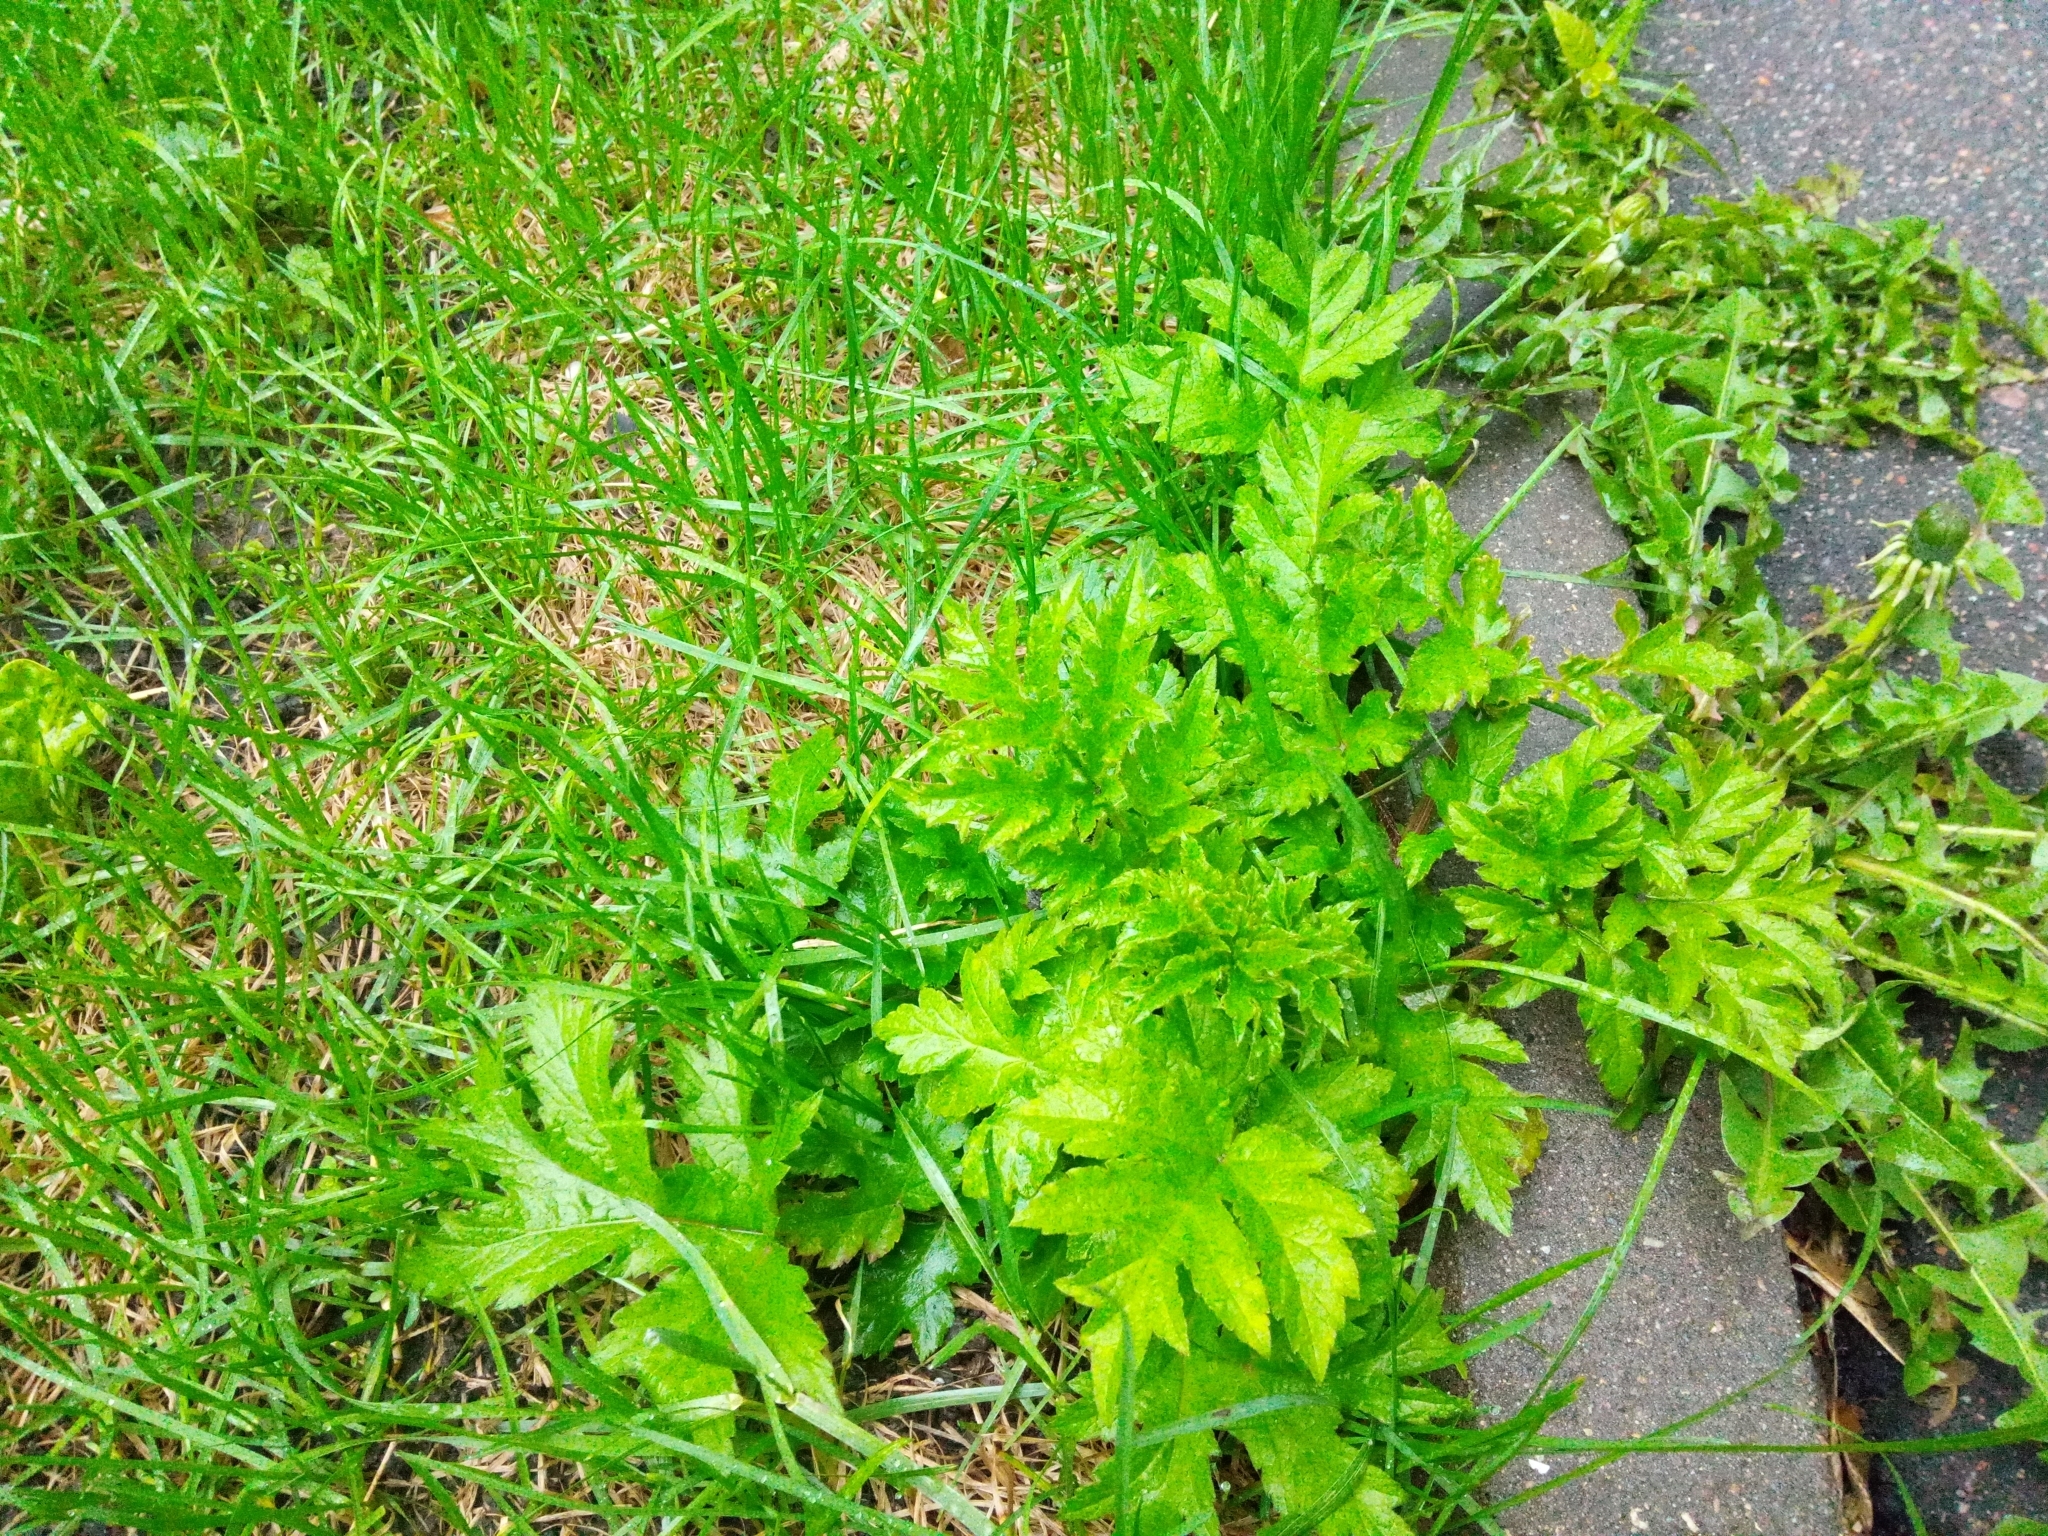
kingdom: Plantae
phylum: Tracheophyta
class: Magnoliopsida
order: Apiales
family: Apiaceae
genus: Heracleum
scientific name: Heracleum sphondylium
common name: Hogweed
